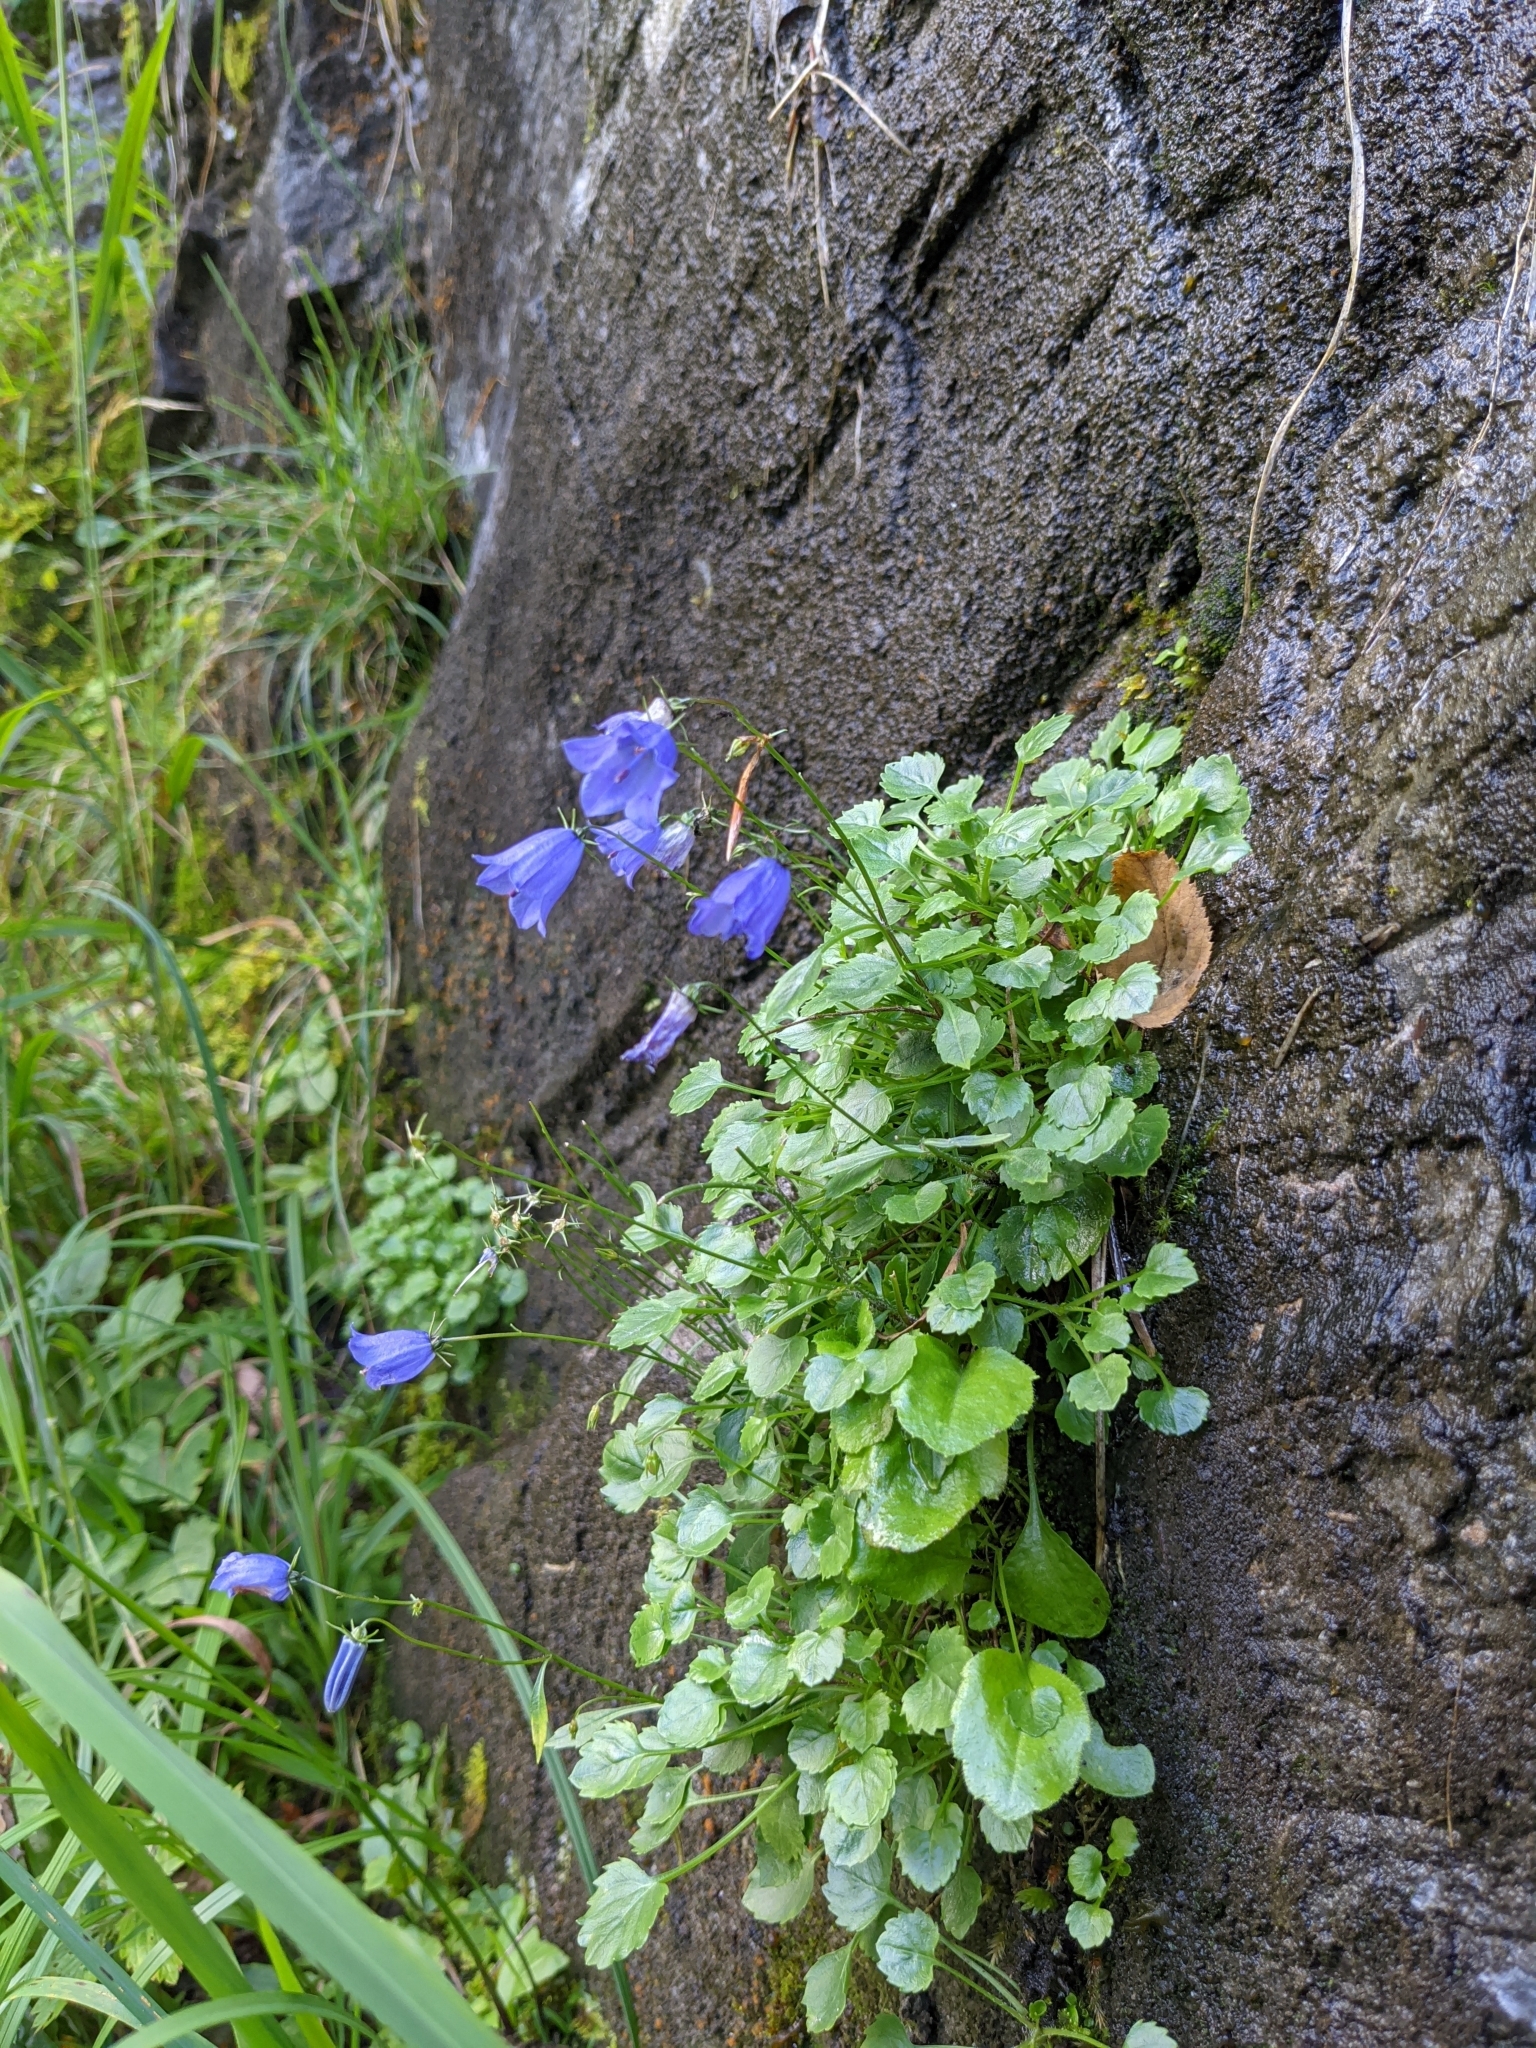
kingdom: Plantae
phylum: Tracheophyta
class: Magnoliopsida
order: Asterales
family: Campanulaceae
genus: Campanula
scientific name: Campanula cochleariifolia
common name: Fairies'-thimbles
